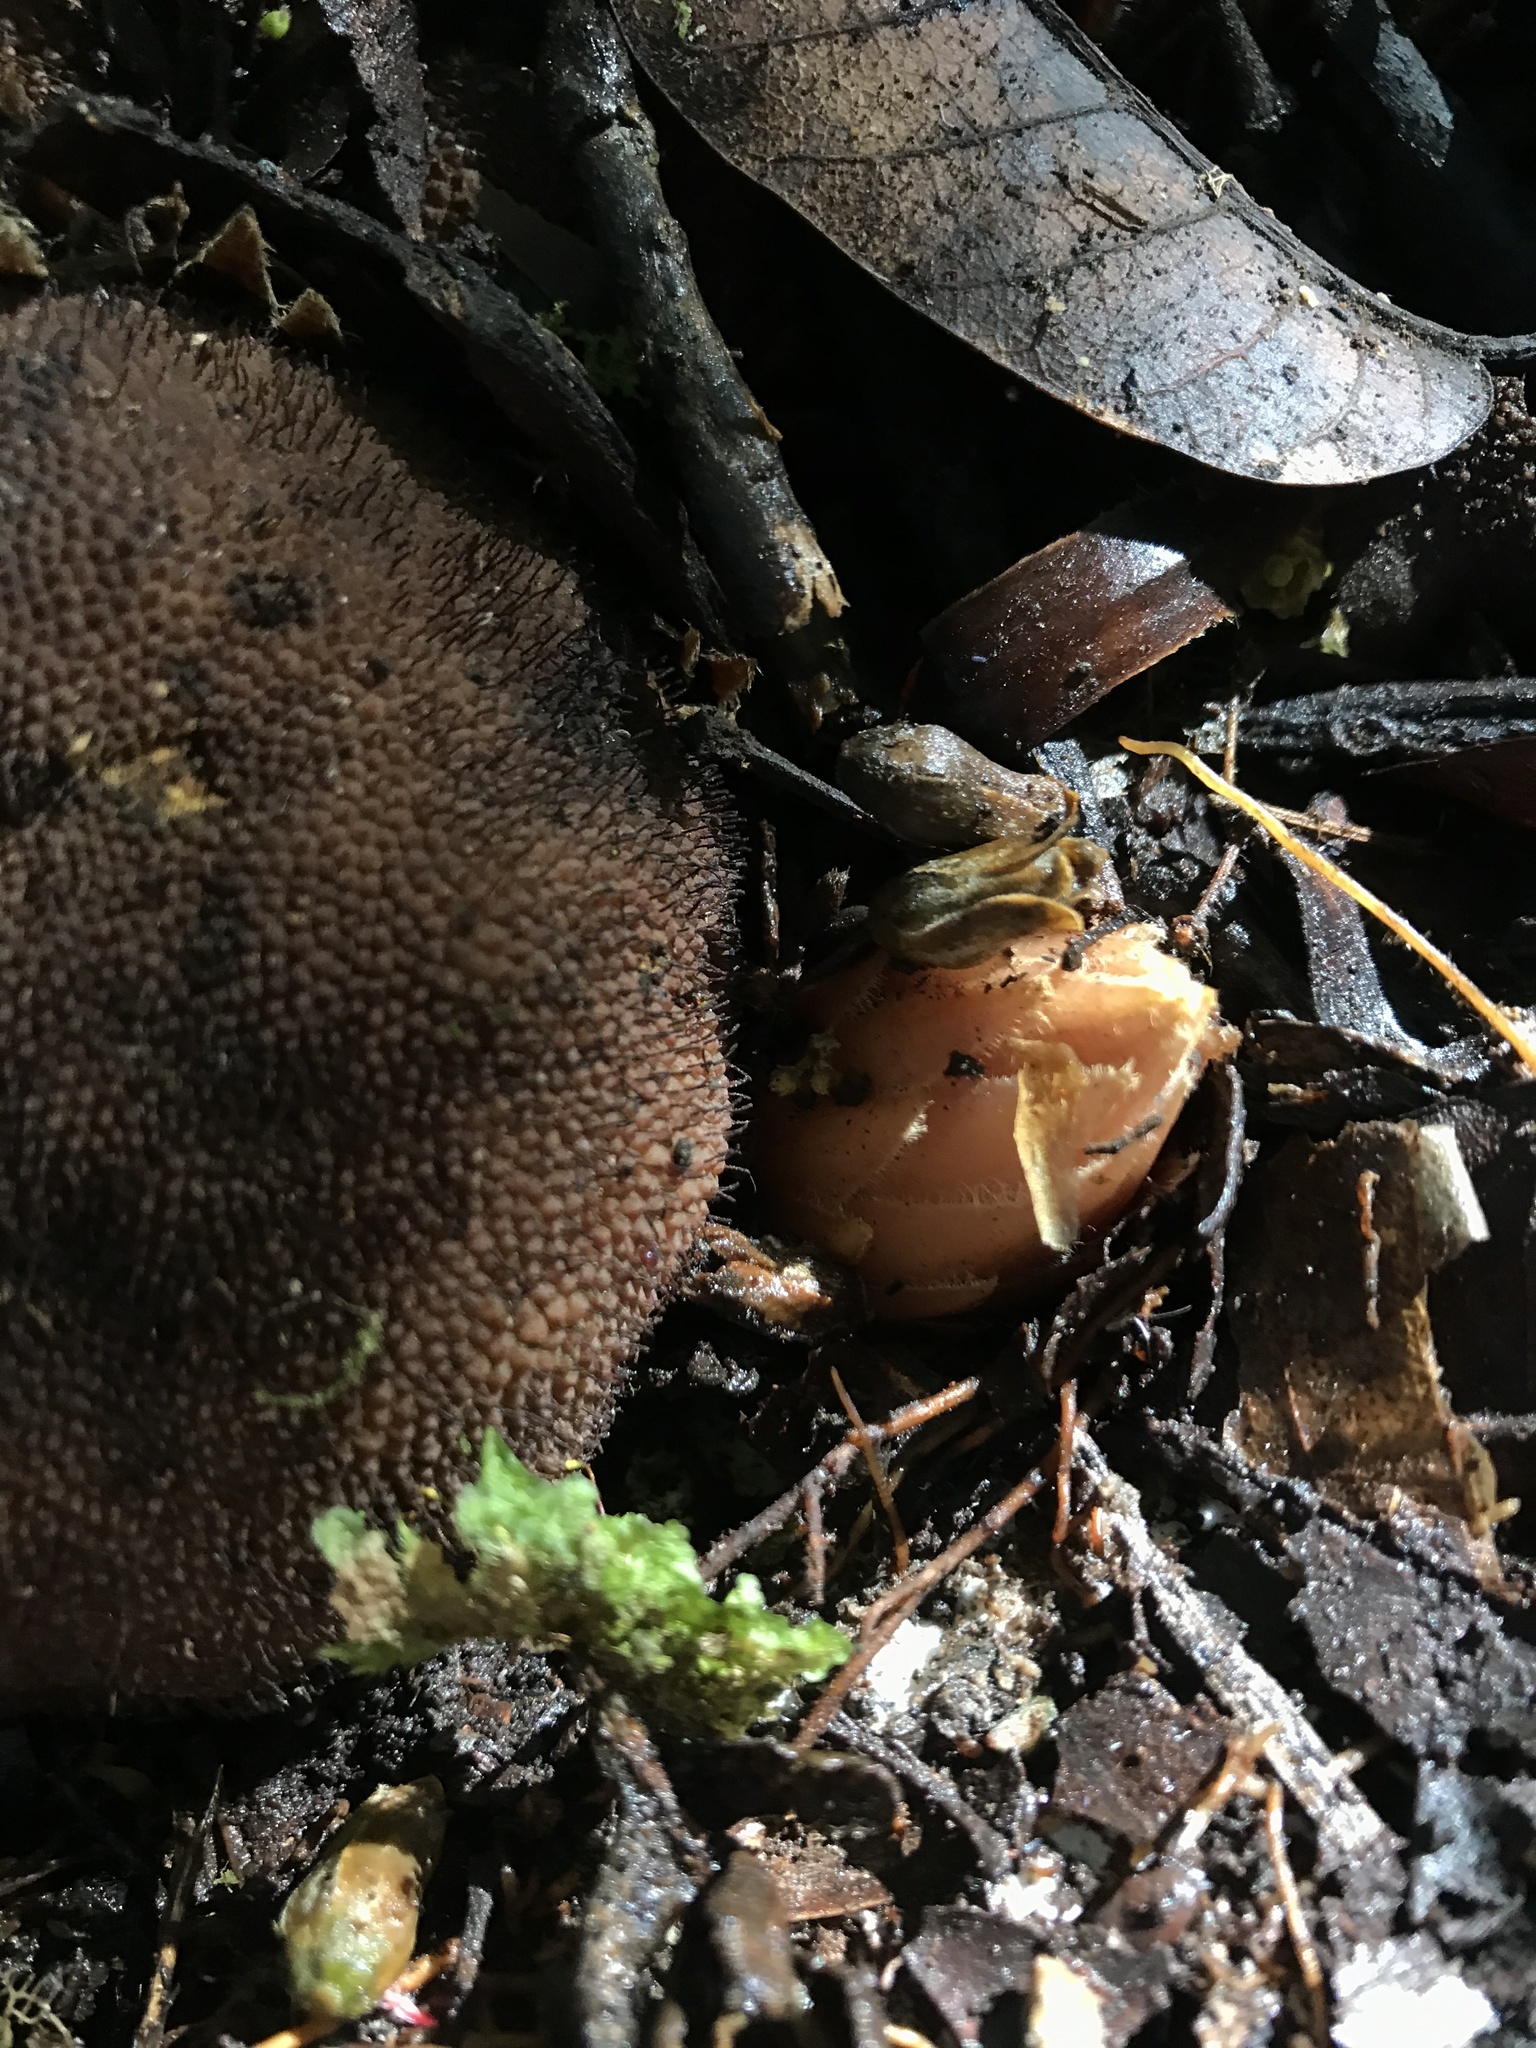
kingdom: Plantae
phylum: Tracheophyta
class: Magnoliopsida
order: Santalales
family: Balanophoraceae
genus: Langsdorffia
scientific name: Langsdorffia hypogaea
